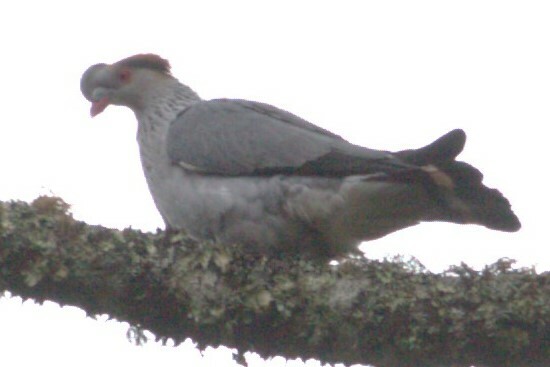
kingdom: Animalia
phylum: Chordata
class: Aves
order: Columbiformes
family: Columbidae
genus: Lopholaimus
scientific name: Lopholaimus antarcticus
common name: Topknot pigeon
